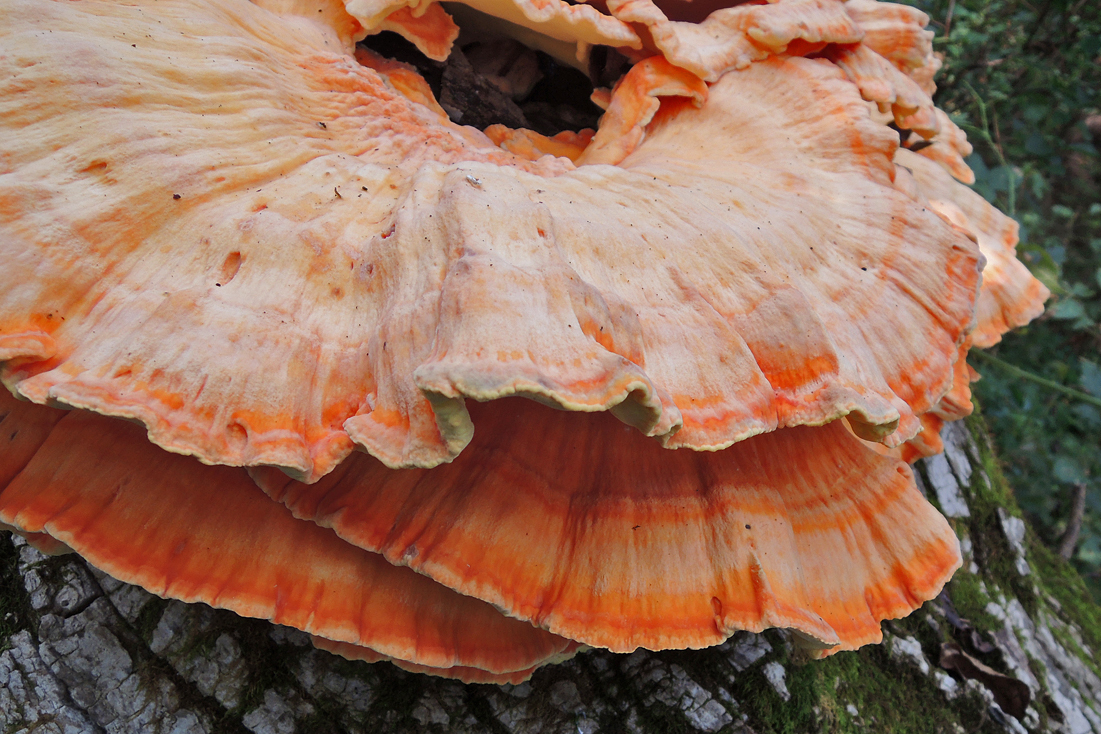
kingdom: Fungi
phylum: Basidiomycota
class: Agaricomycetes
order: Polyporales
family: Laetiporaceae
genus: Laetiporus
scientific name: Laetiporus sulphureus
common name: Chicken of the woods
